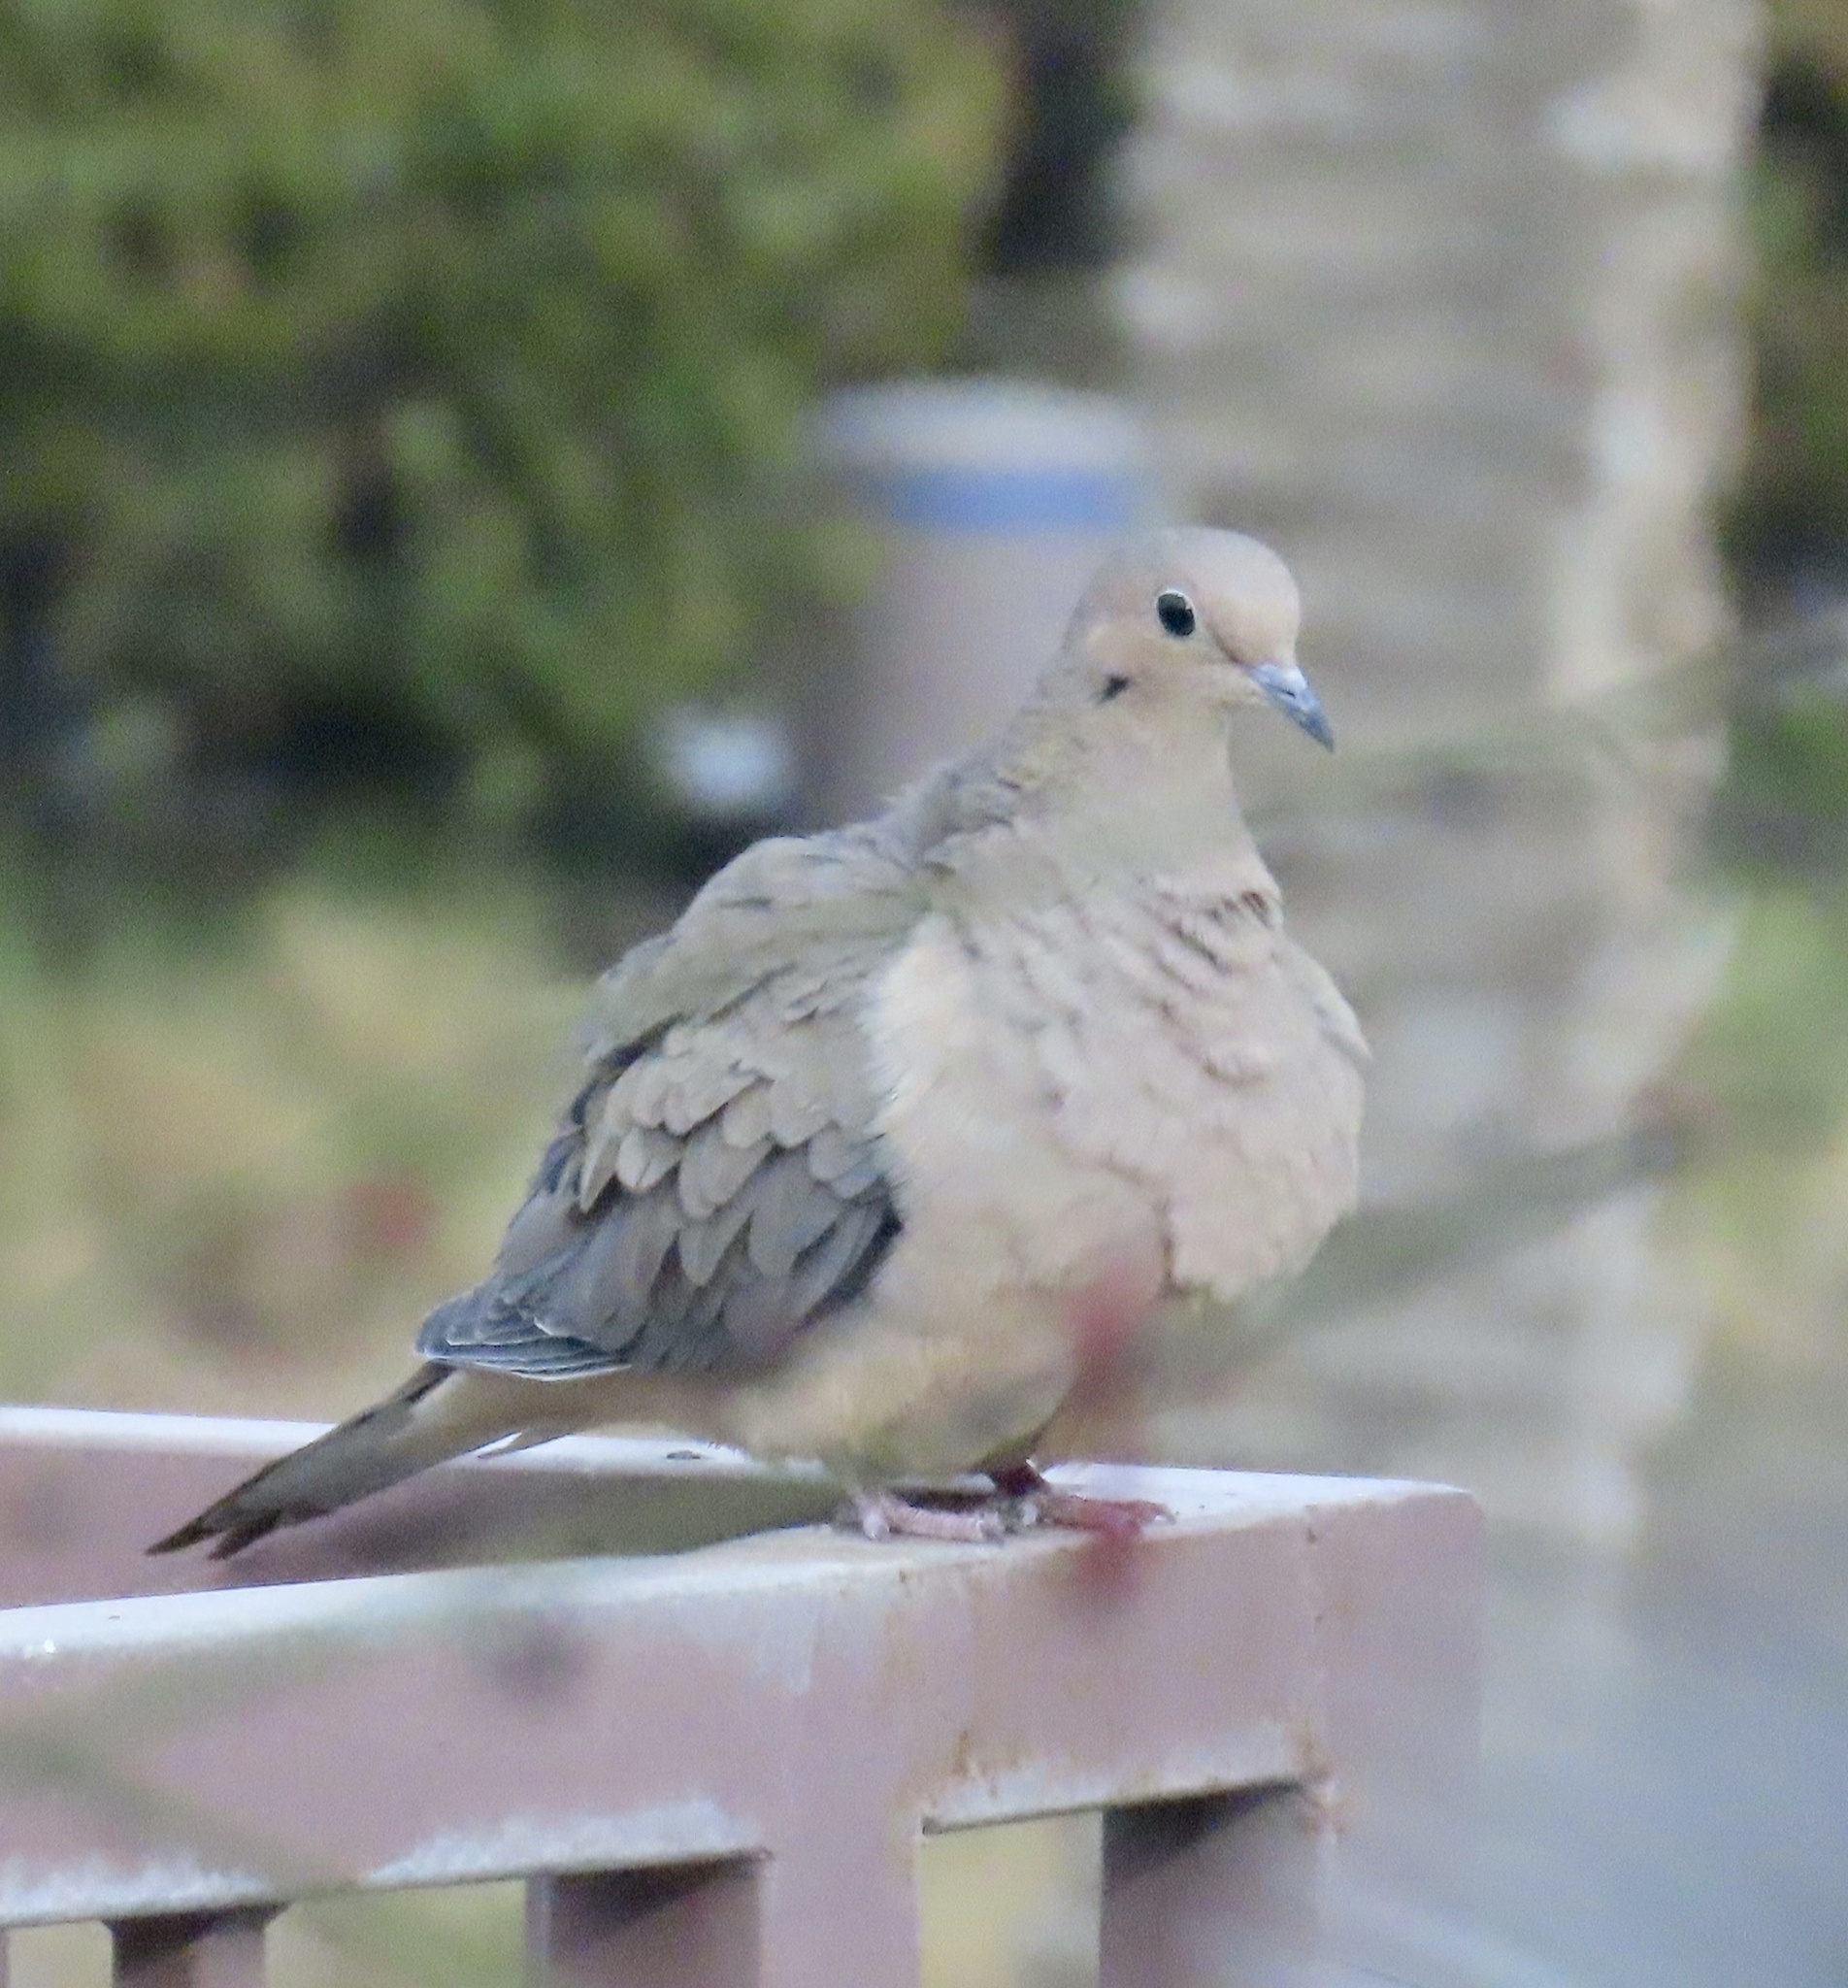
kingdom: Animalia
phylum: Chordata
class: Aves
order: Columbiformes
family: Columbidae
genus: Zenaida
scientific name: Zenaida macroura
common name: Mourning dove
